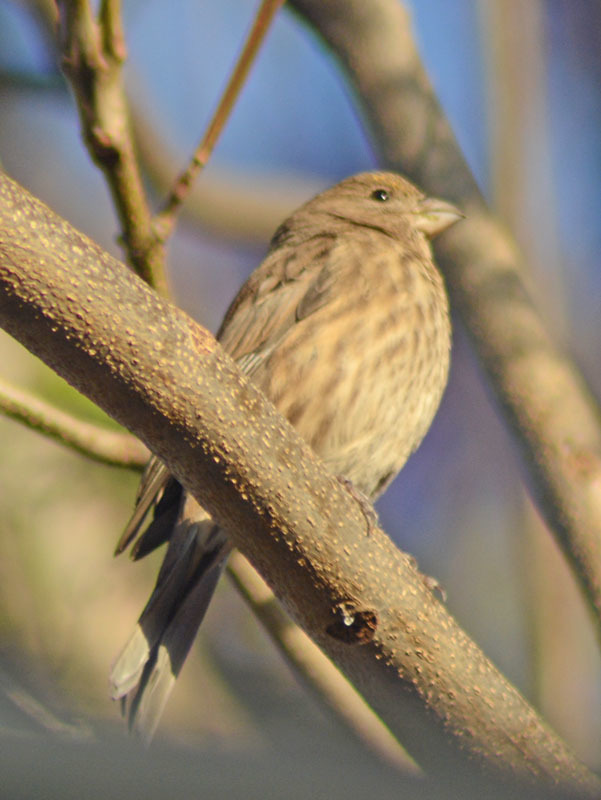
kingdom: Animalia
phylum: Chordata
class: Aves
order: Passeriformes
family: Fringillidae
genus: Haemorhous
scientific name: Haemorhous mexicanus
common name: House finch
